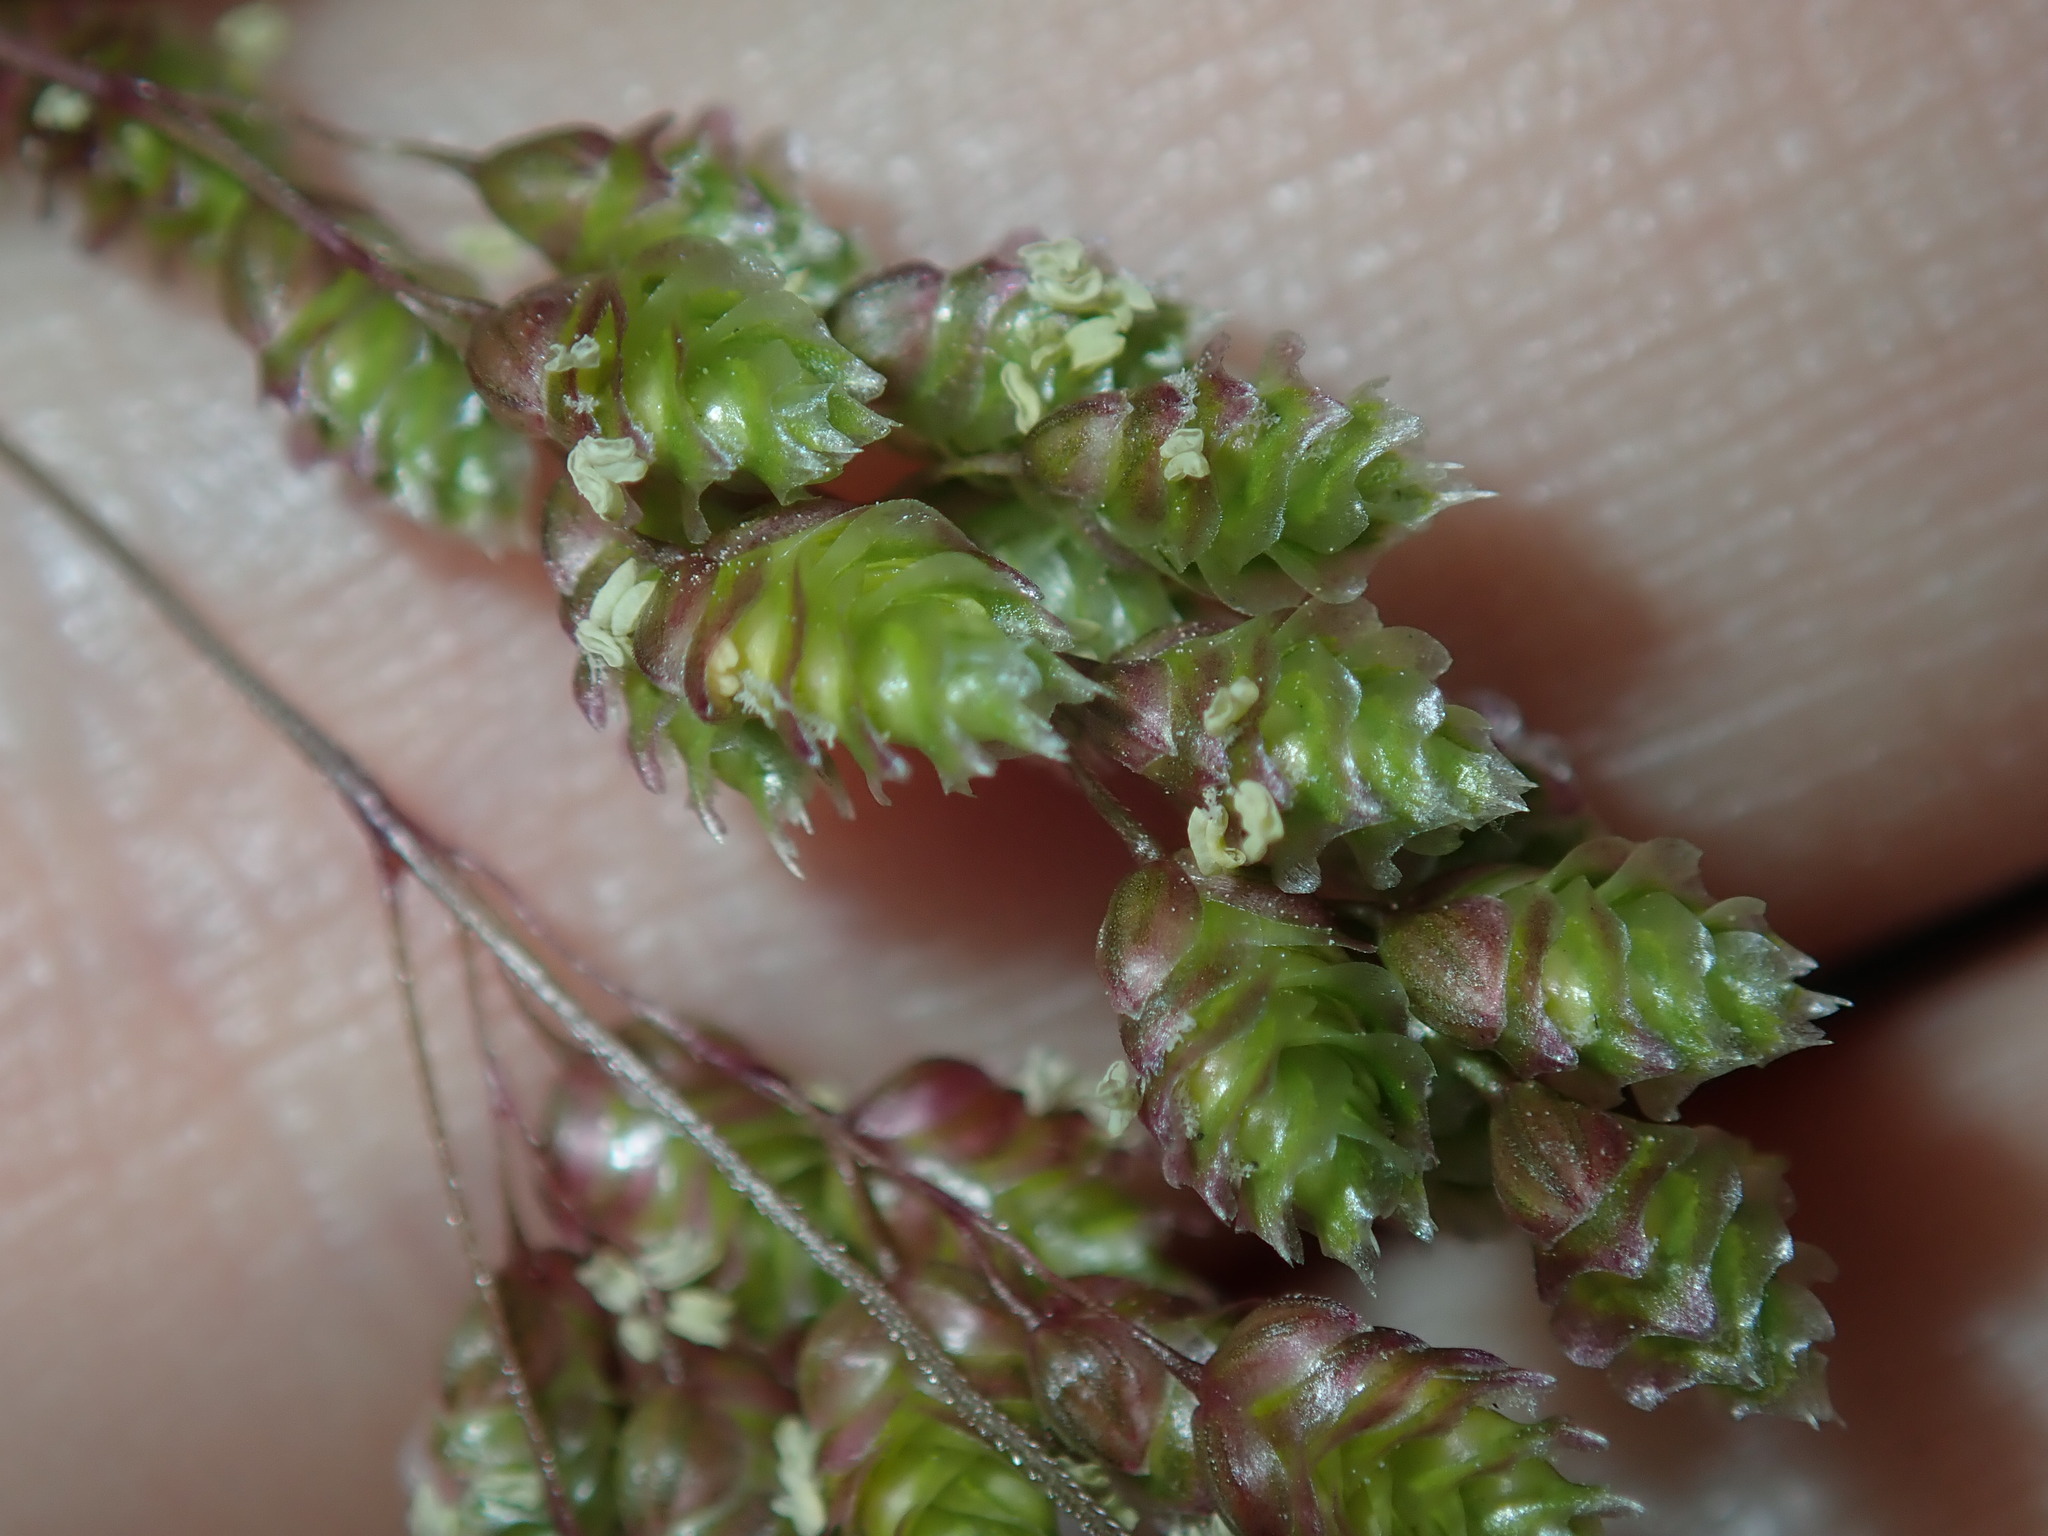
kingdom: Plantae
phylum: Tracheophyta
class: Liliopsida
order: Poales
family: Poaceae
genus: Chascolytrum
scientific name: Chascolytrum subaristatum
